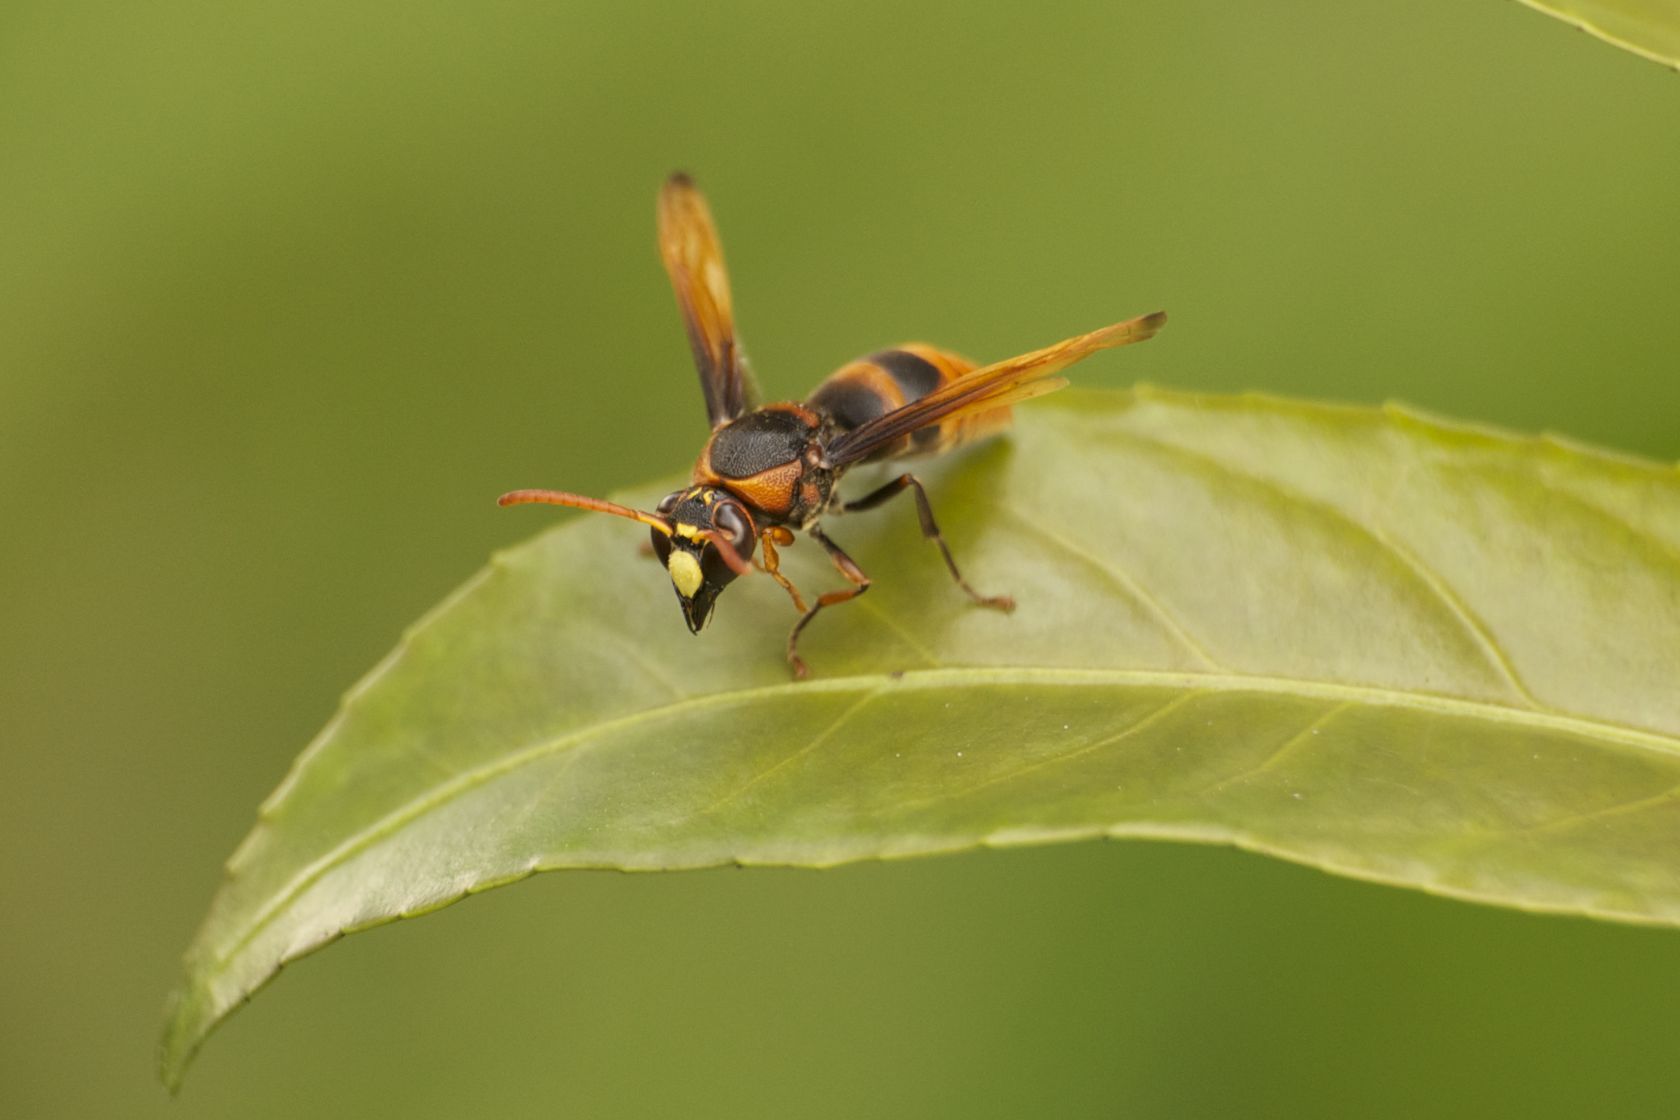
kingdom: Animalia
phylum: Arthropoda
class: Insecta
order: Hymenoptera
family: Eumenidae
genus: Rhynchium
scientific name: Rhynchium quinquecinctum
